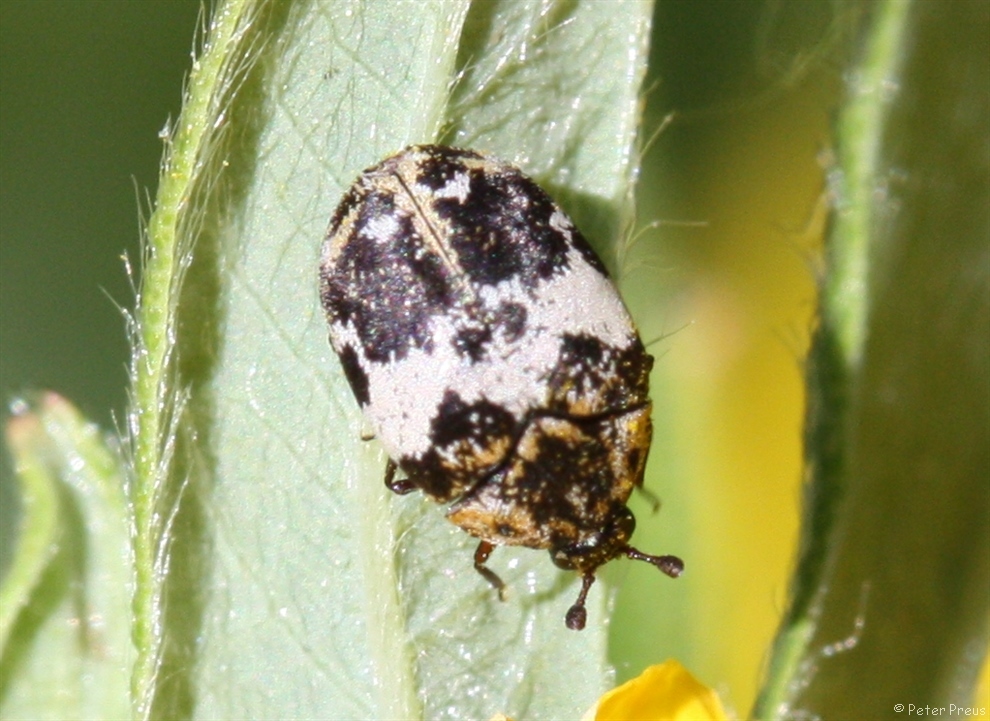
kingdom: Animalia
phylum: Arthropoda
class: Insecta
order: Coleoptera
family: Dermestidae
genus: Anthrenus
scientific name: Anthrenus pimpinellae
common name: Dermestid beetle
